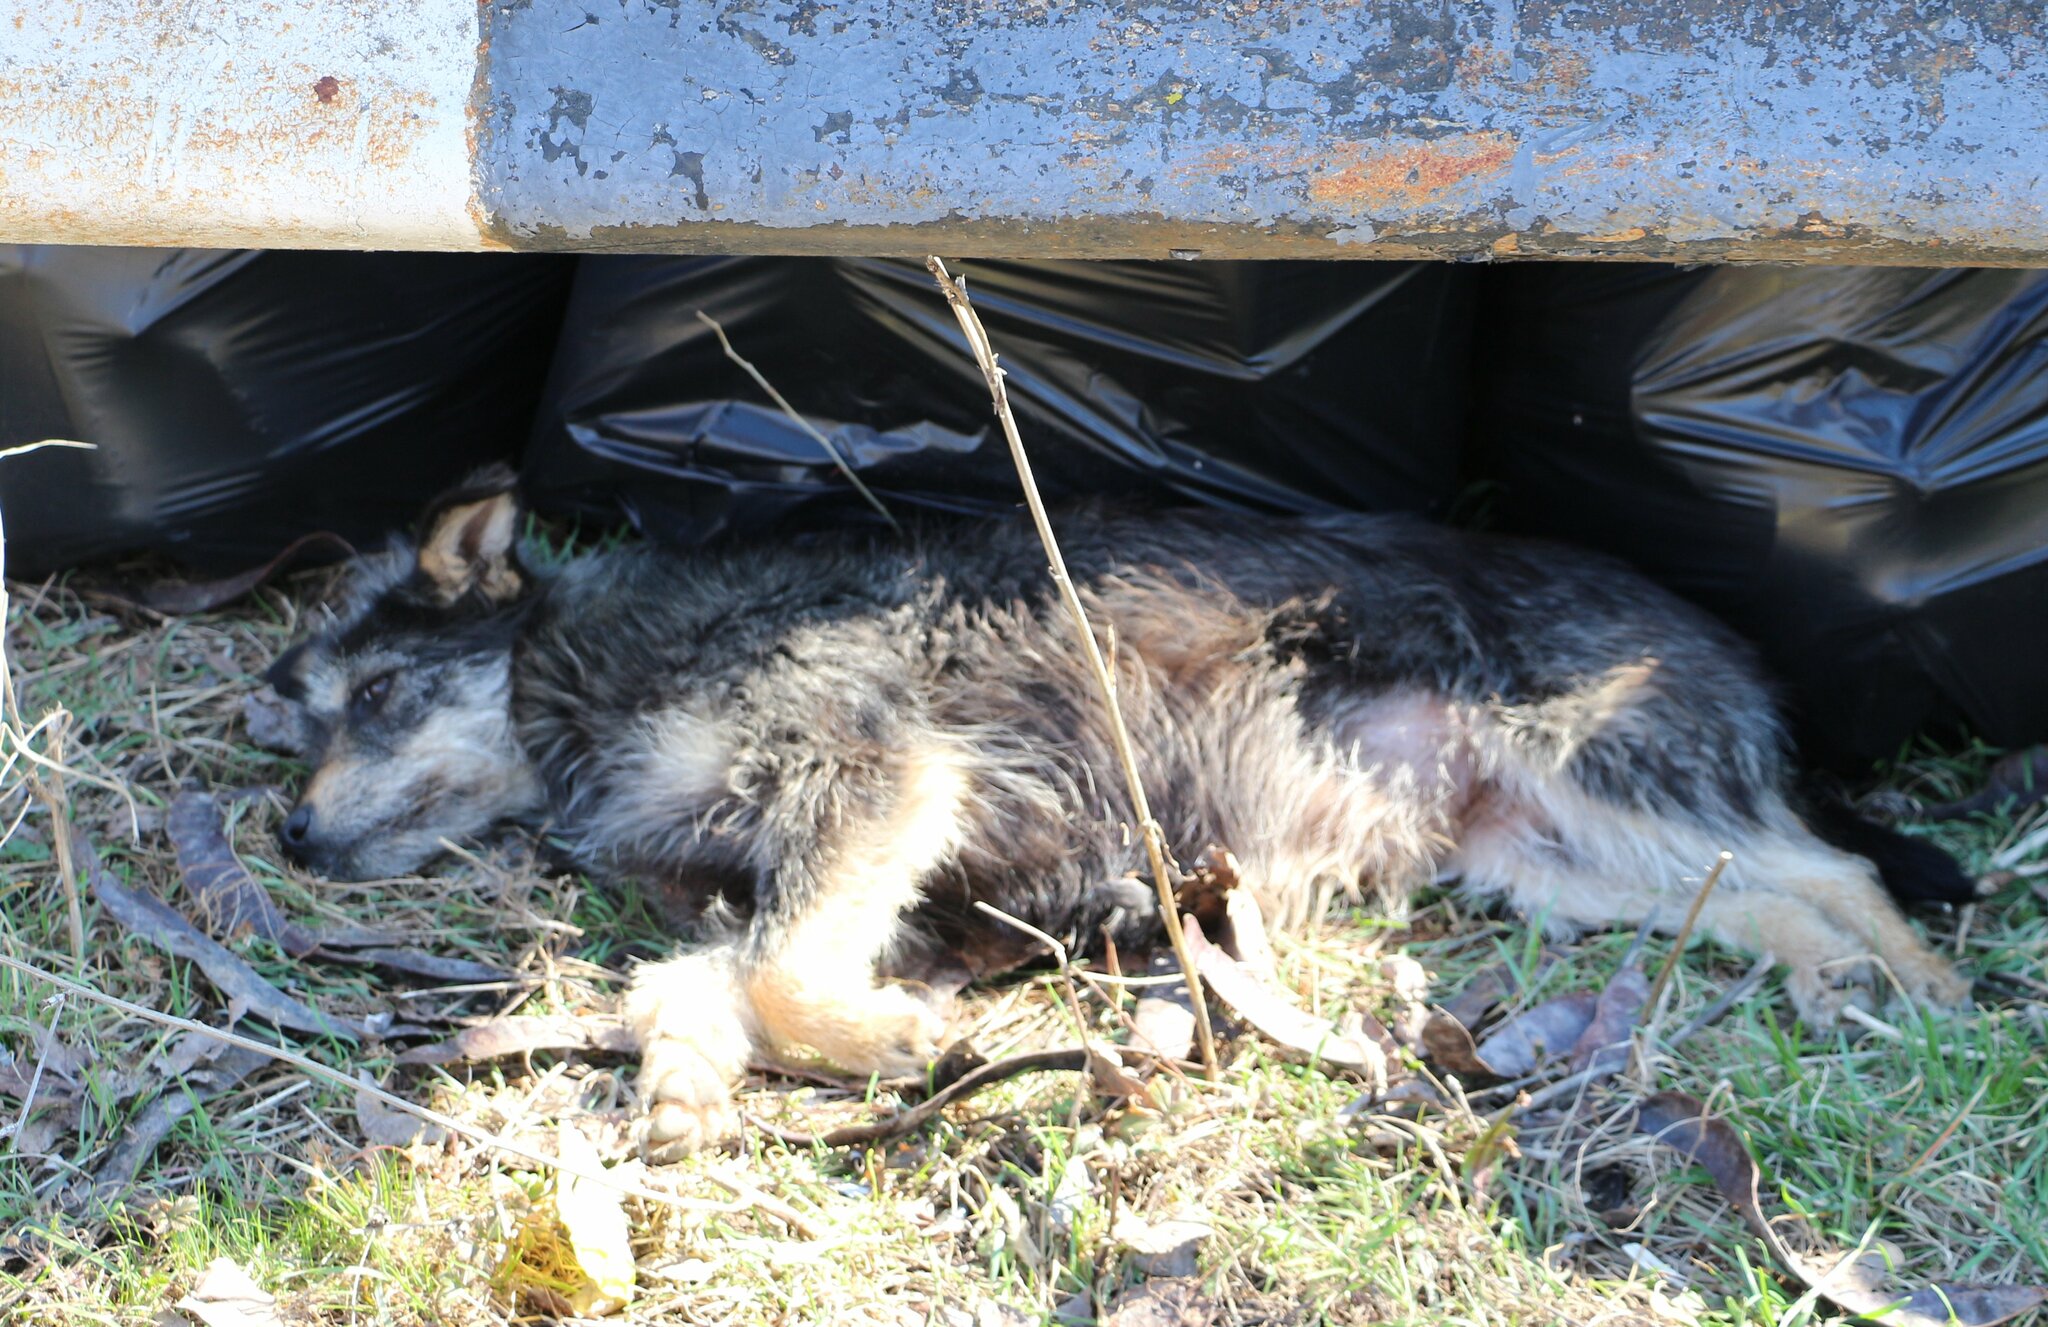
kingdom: Animalia
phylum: Chordata
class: Mammalia
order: Carnivora
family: Canidae
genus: Canis
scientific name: Canis lupus
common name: Gray wolf
